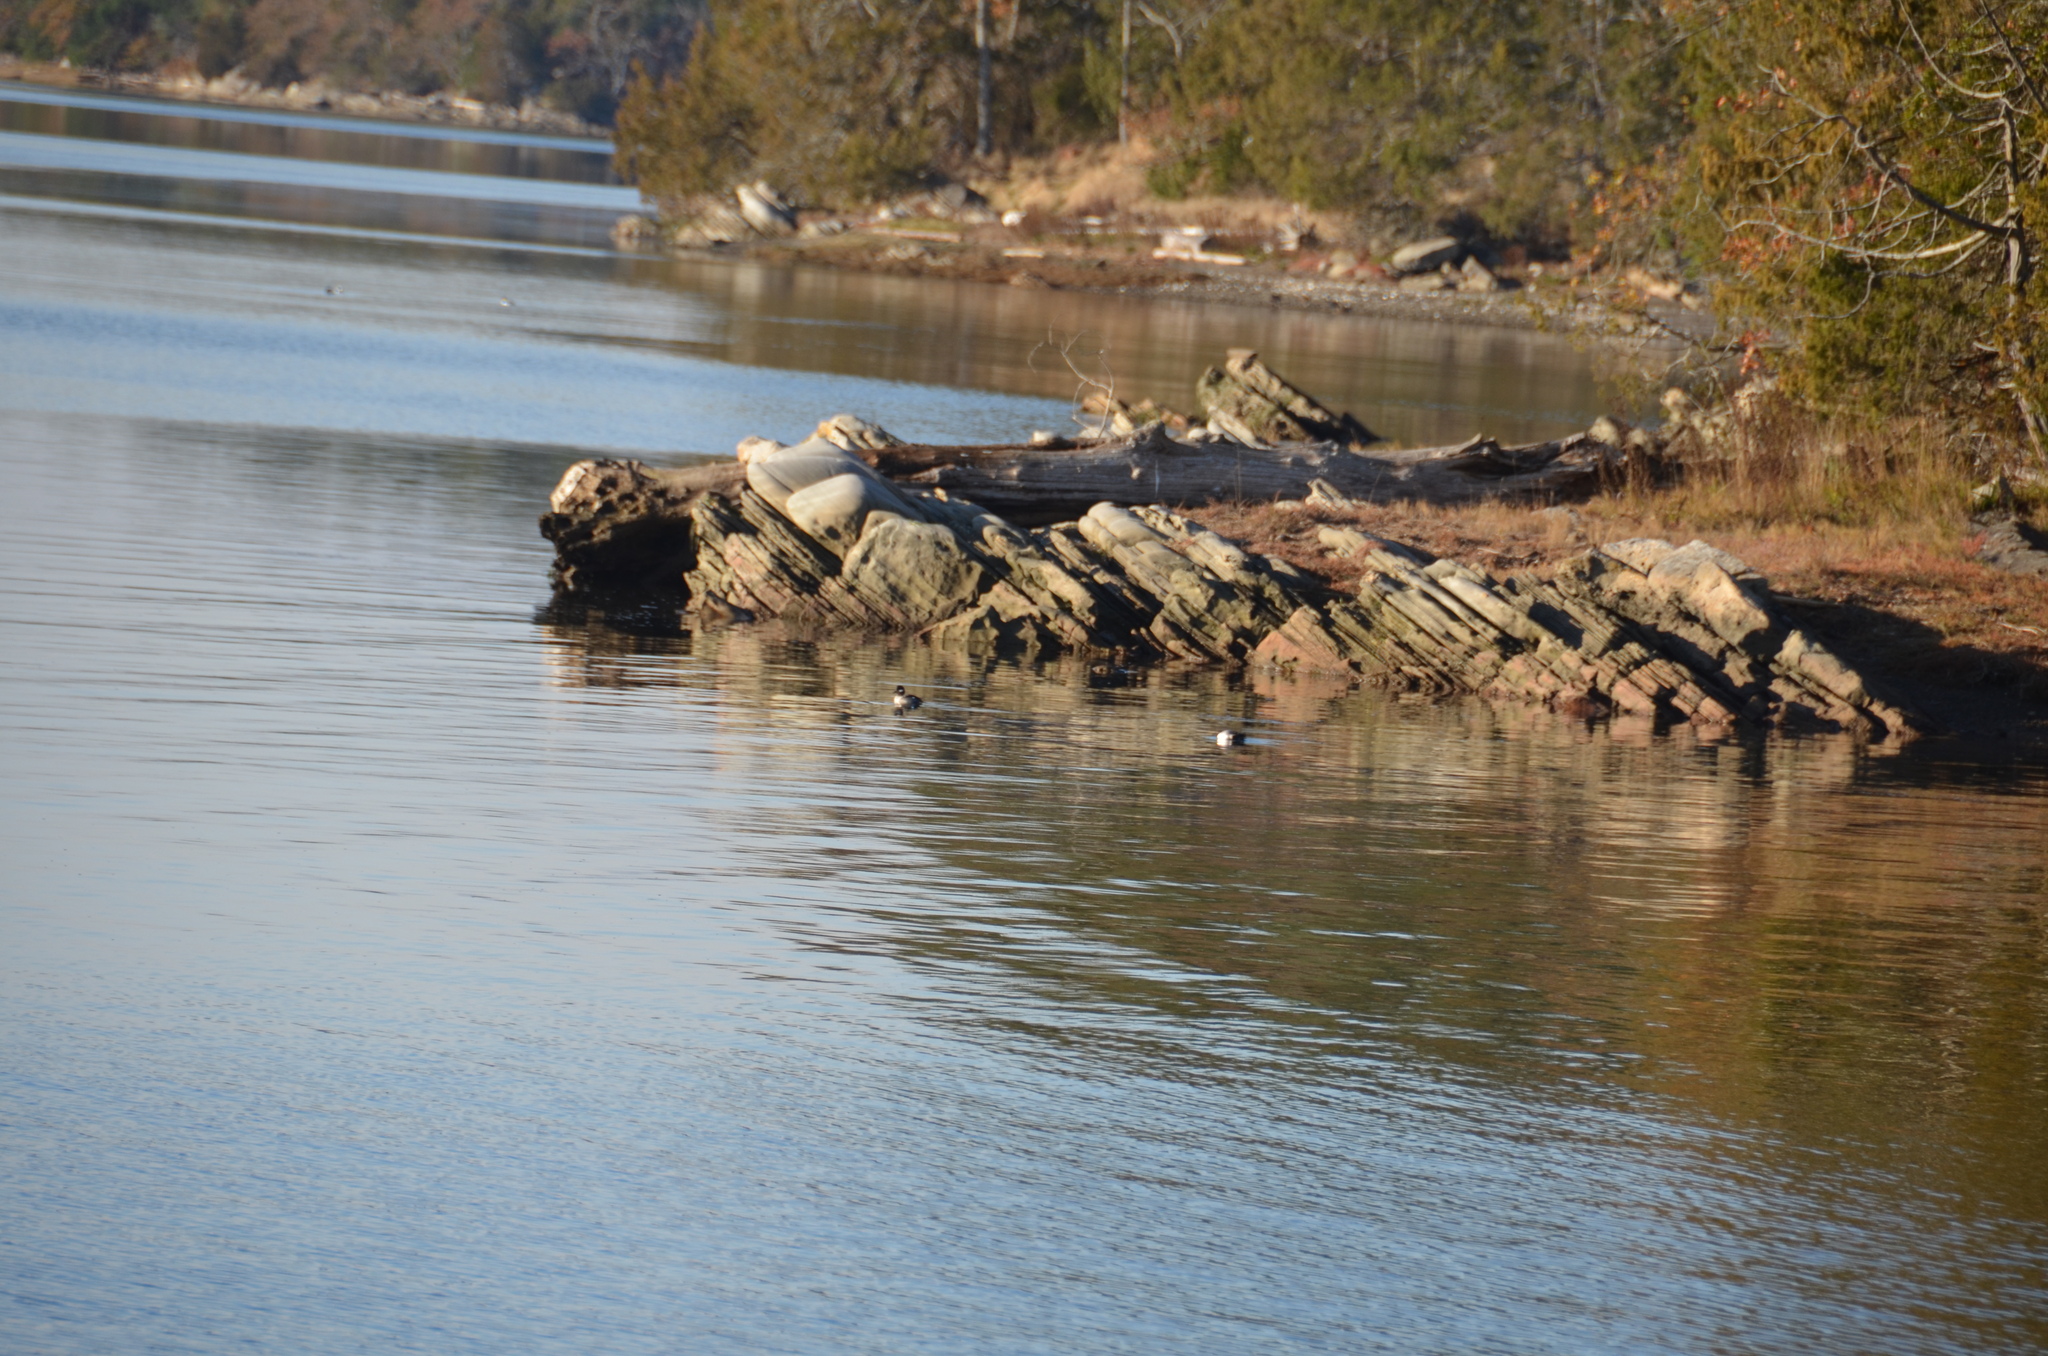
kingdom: Animalia
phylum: Chordata
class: Aves
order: Anseriformes
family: Anatidae
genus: Bucephala
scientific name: Bucephala albeola
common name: Bufflehead
